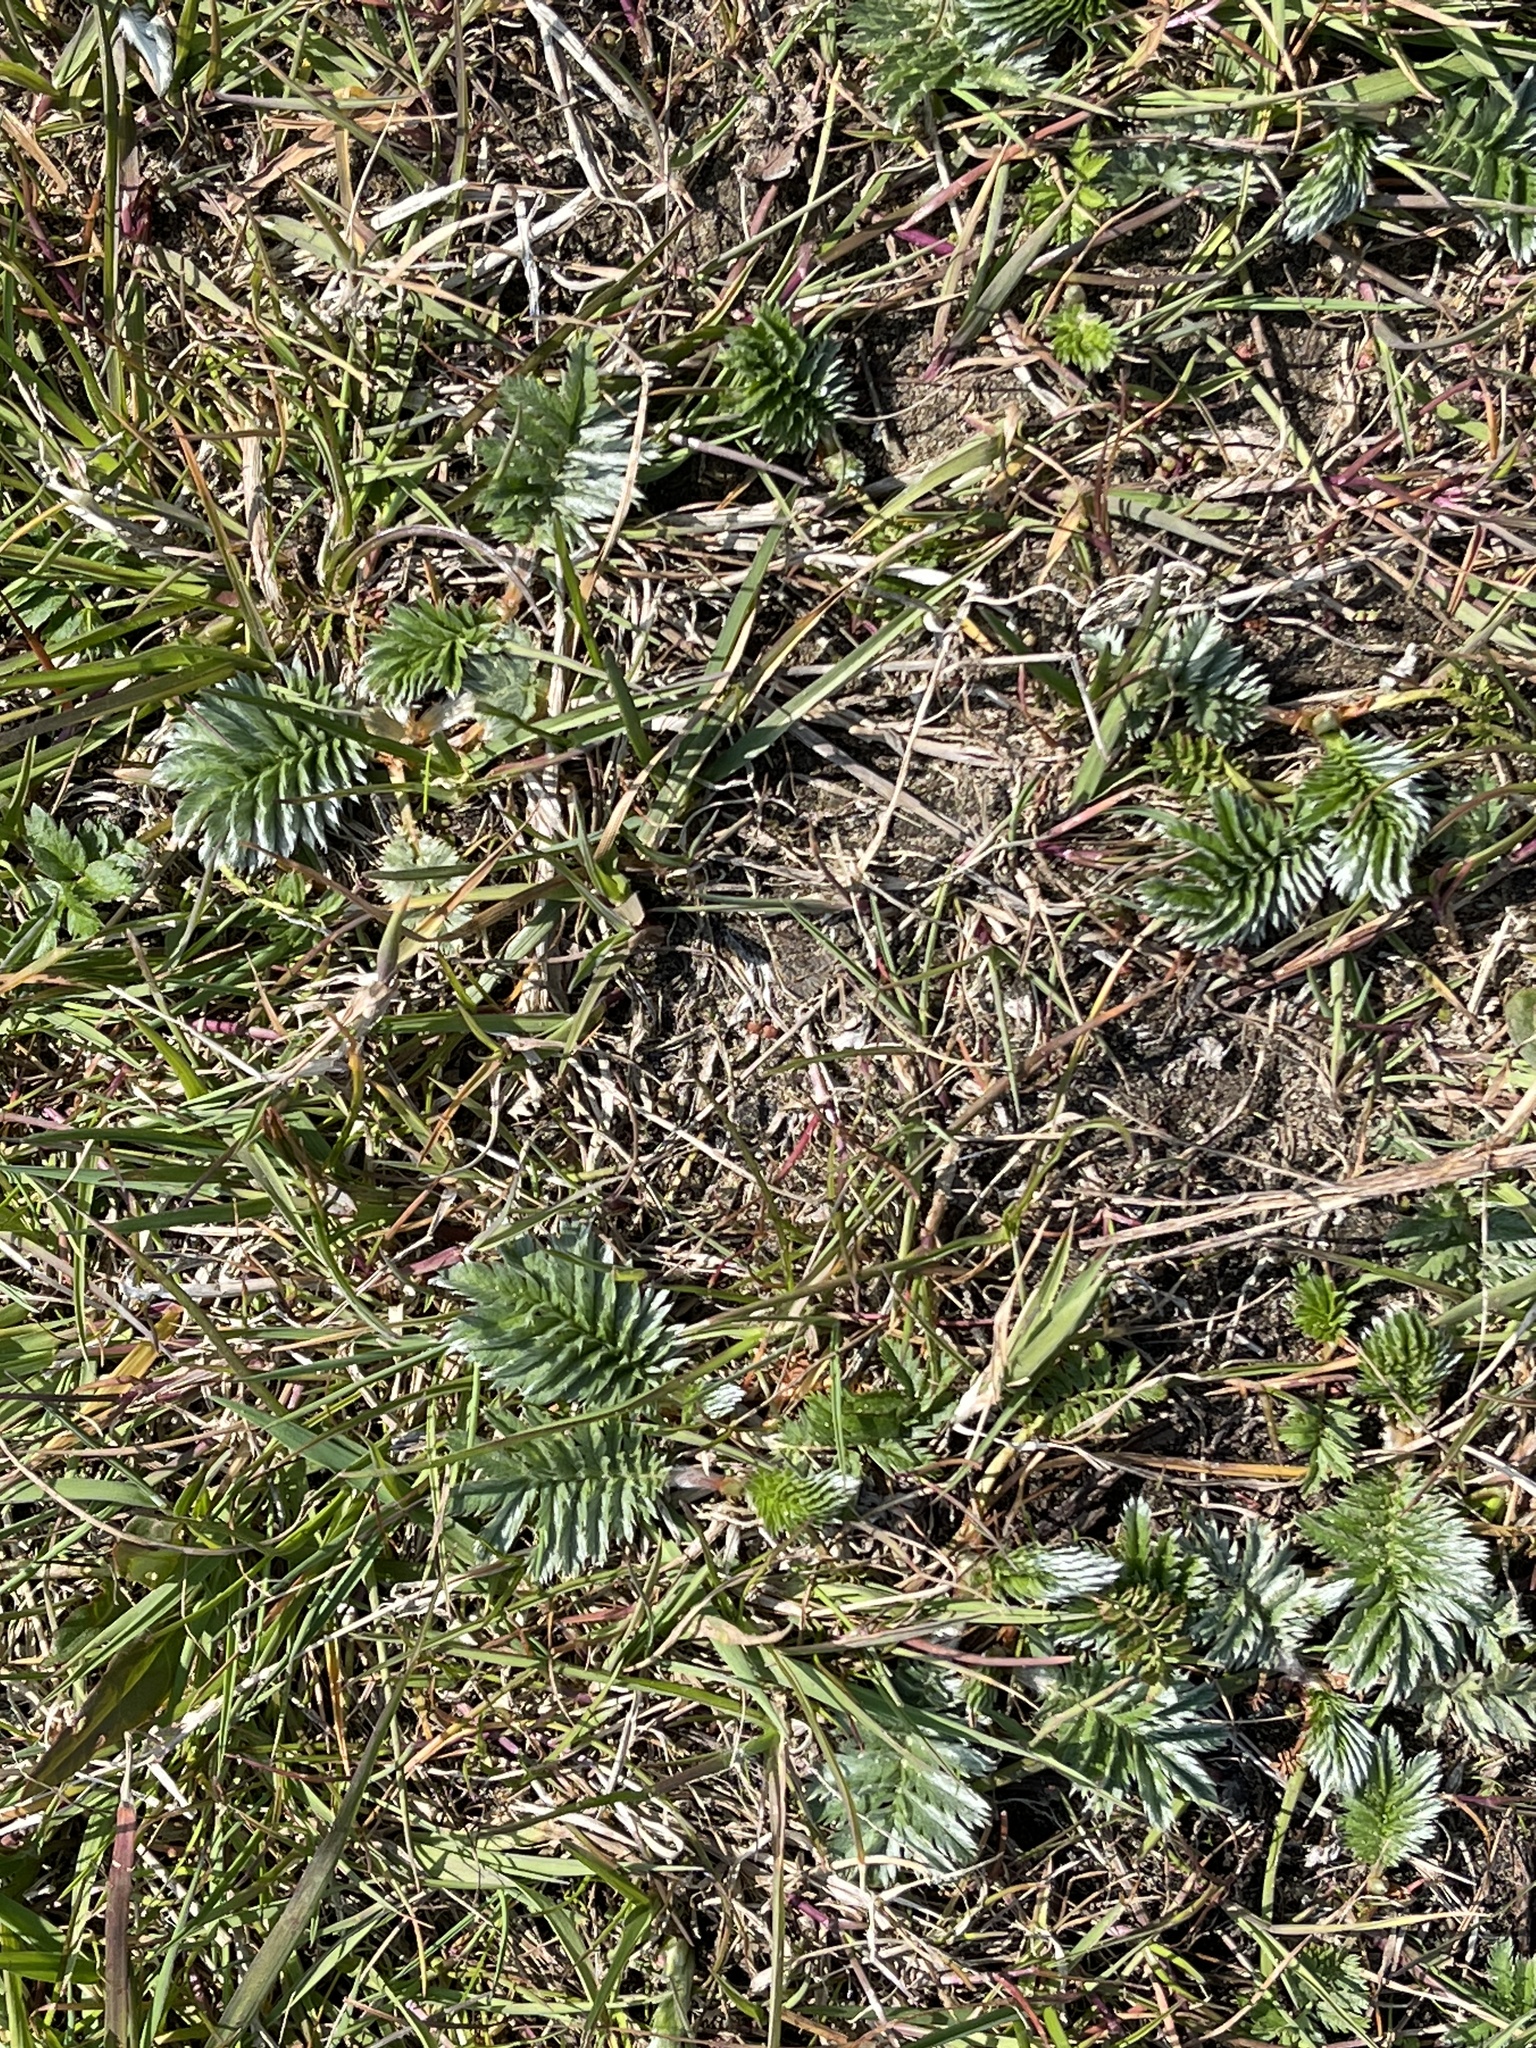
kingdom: Plantae
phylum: Tracheophyta
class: Magnoliopsida
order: Rosales
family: Rosaceae
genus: Argentina
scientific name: Argentina anserina
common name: Common silverweed
